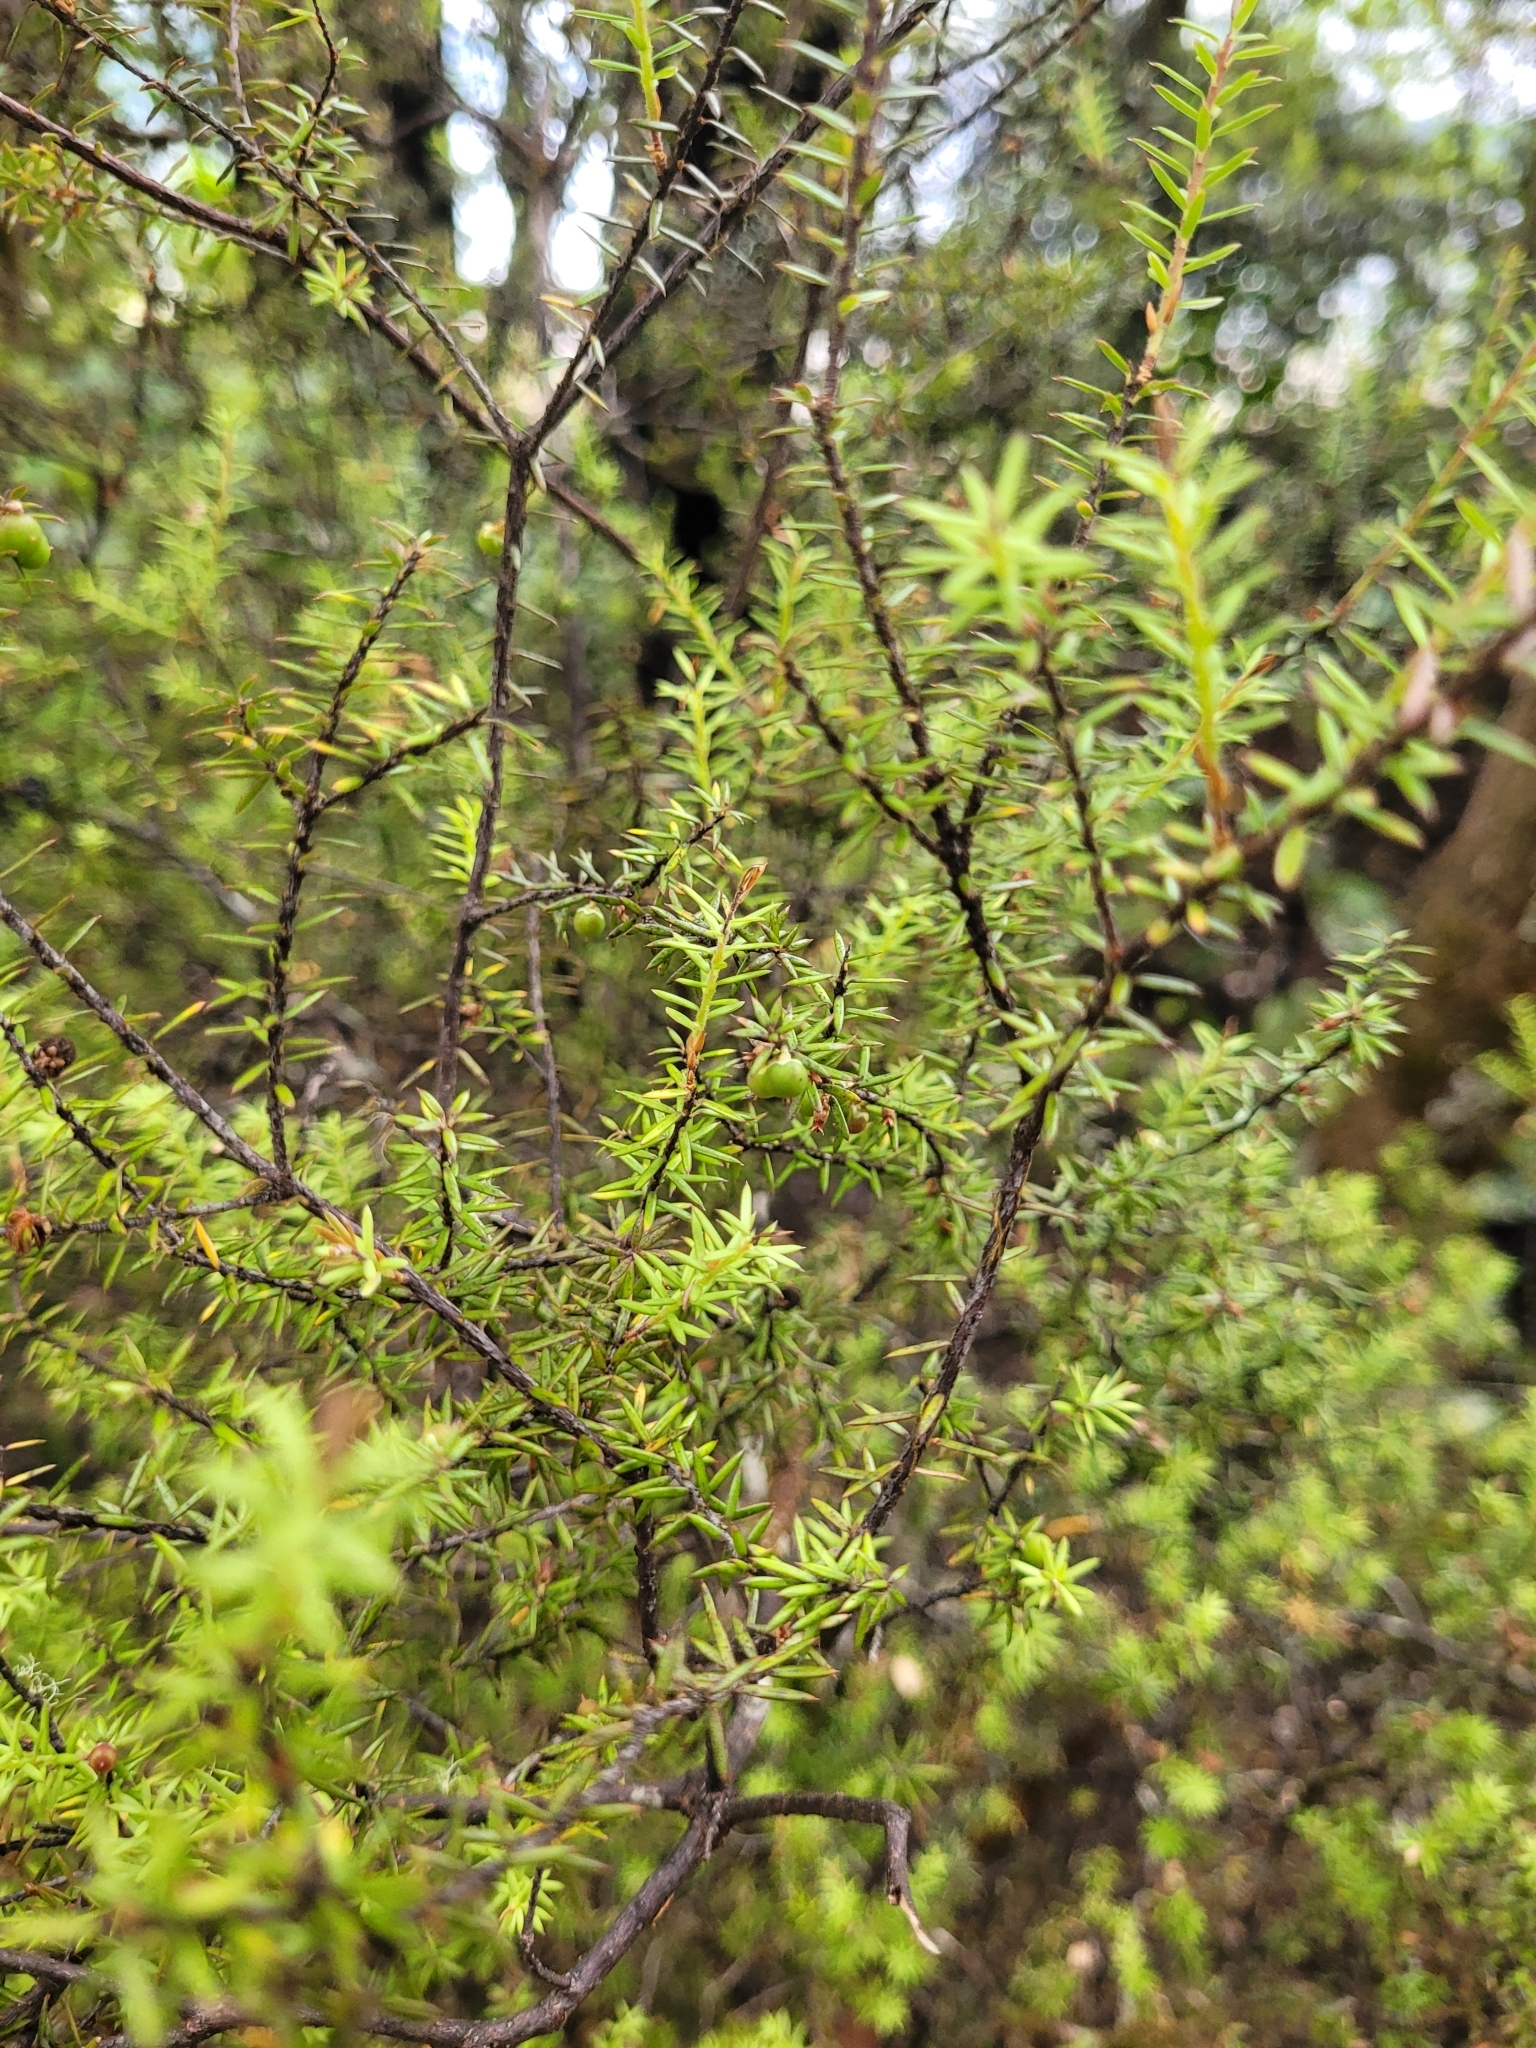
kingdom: Plantae
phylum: Tracheophyta
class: Magnoliopsida
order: Ericales
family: Ericaceae
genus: Leptecophylla
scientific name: Leptecophylla juniperina
